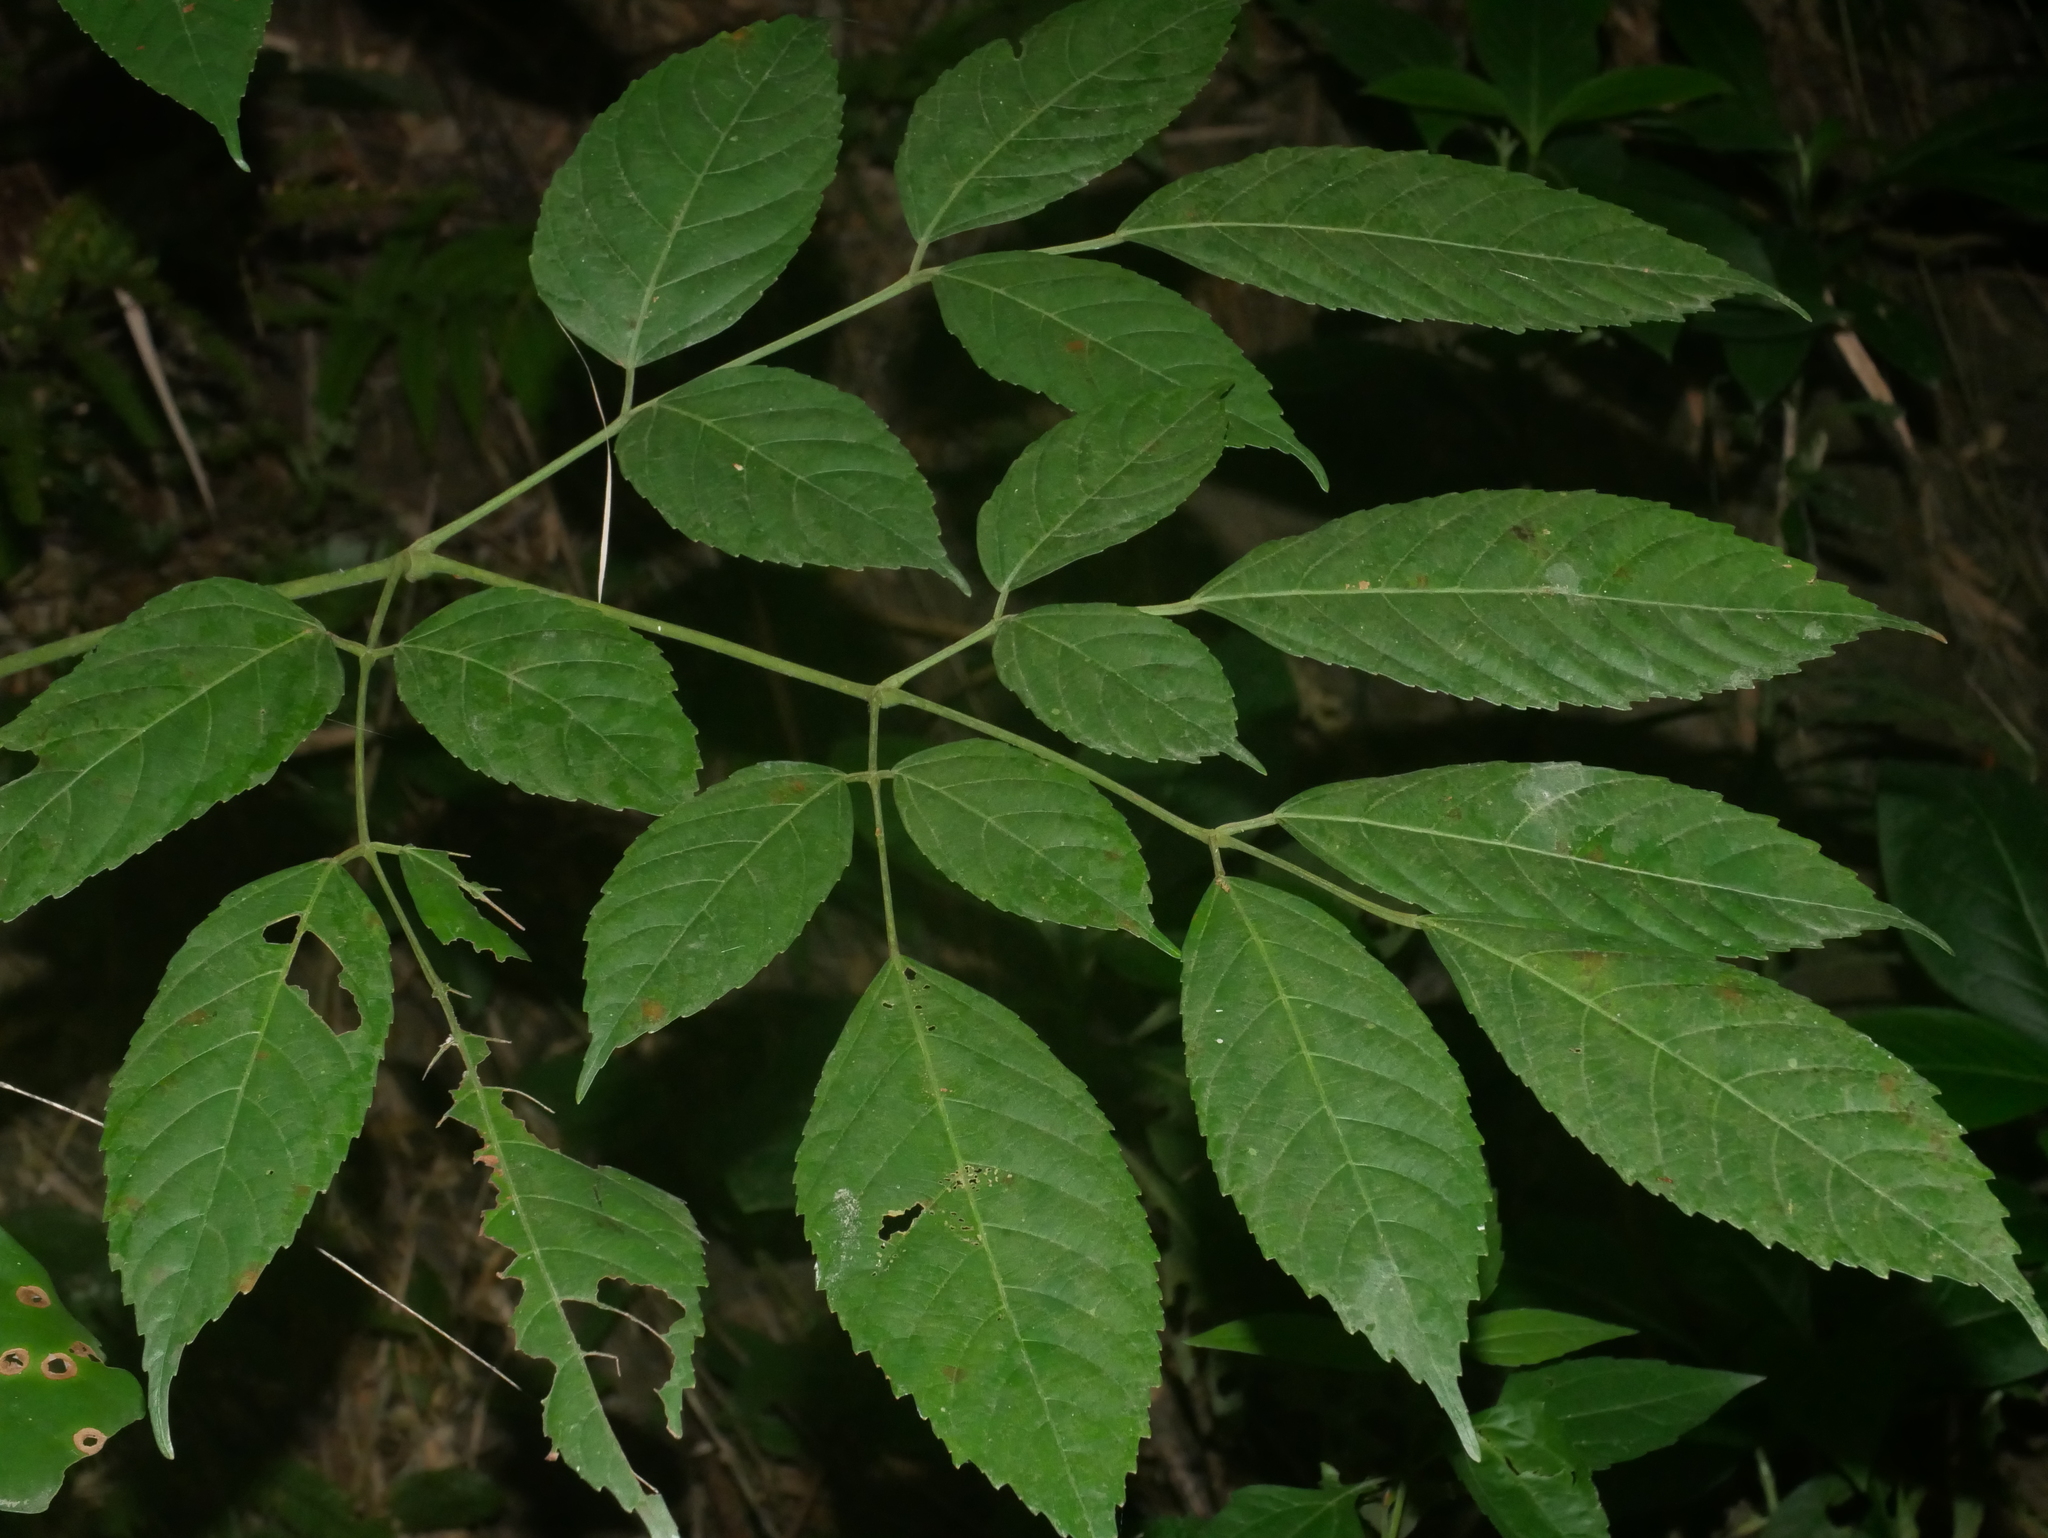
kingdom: Plantae
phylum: Tracheophyta
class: Magnoliopsida
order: Vitales
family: Vitaceae
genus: Leea
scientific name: Leea guineensis
